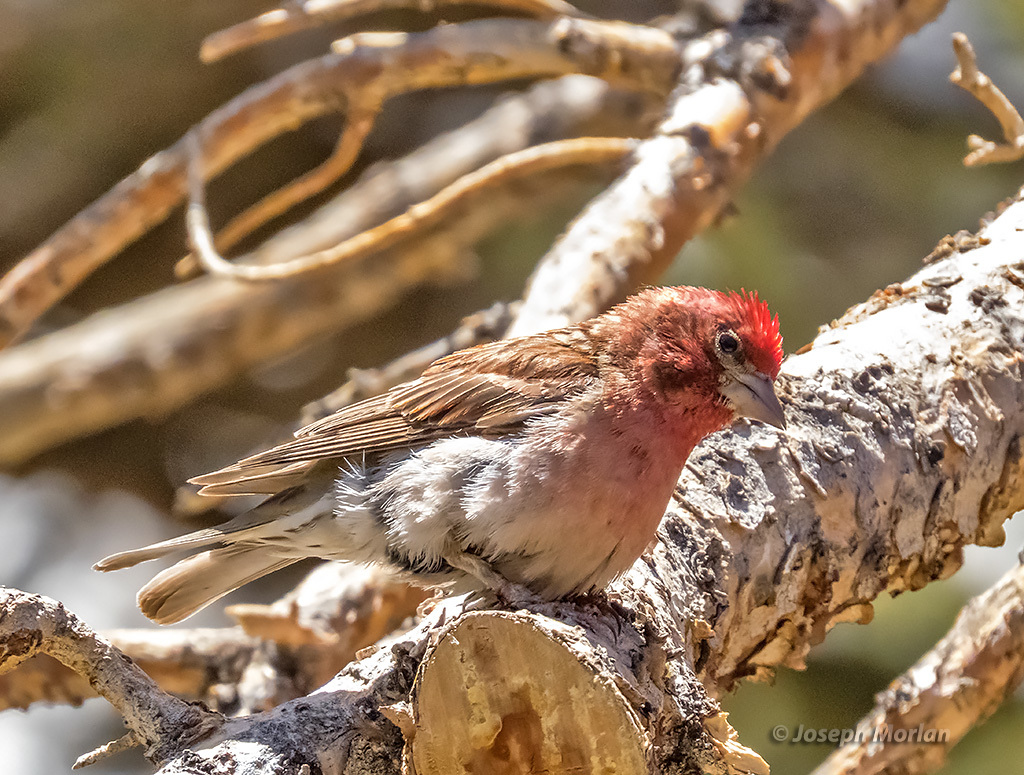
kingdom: Animalia
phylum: Chordata
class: Aves
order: Passeriformes
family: Fringillidae
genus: Haemorhous
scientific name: Haemorhous cassinii
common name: Cassin's finch
